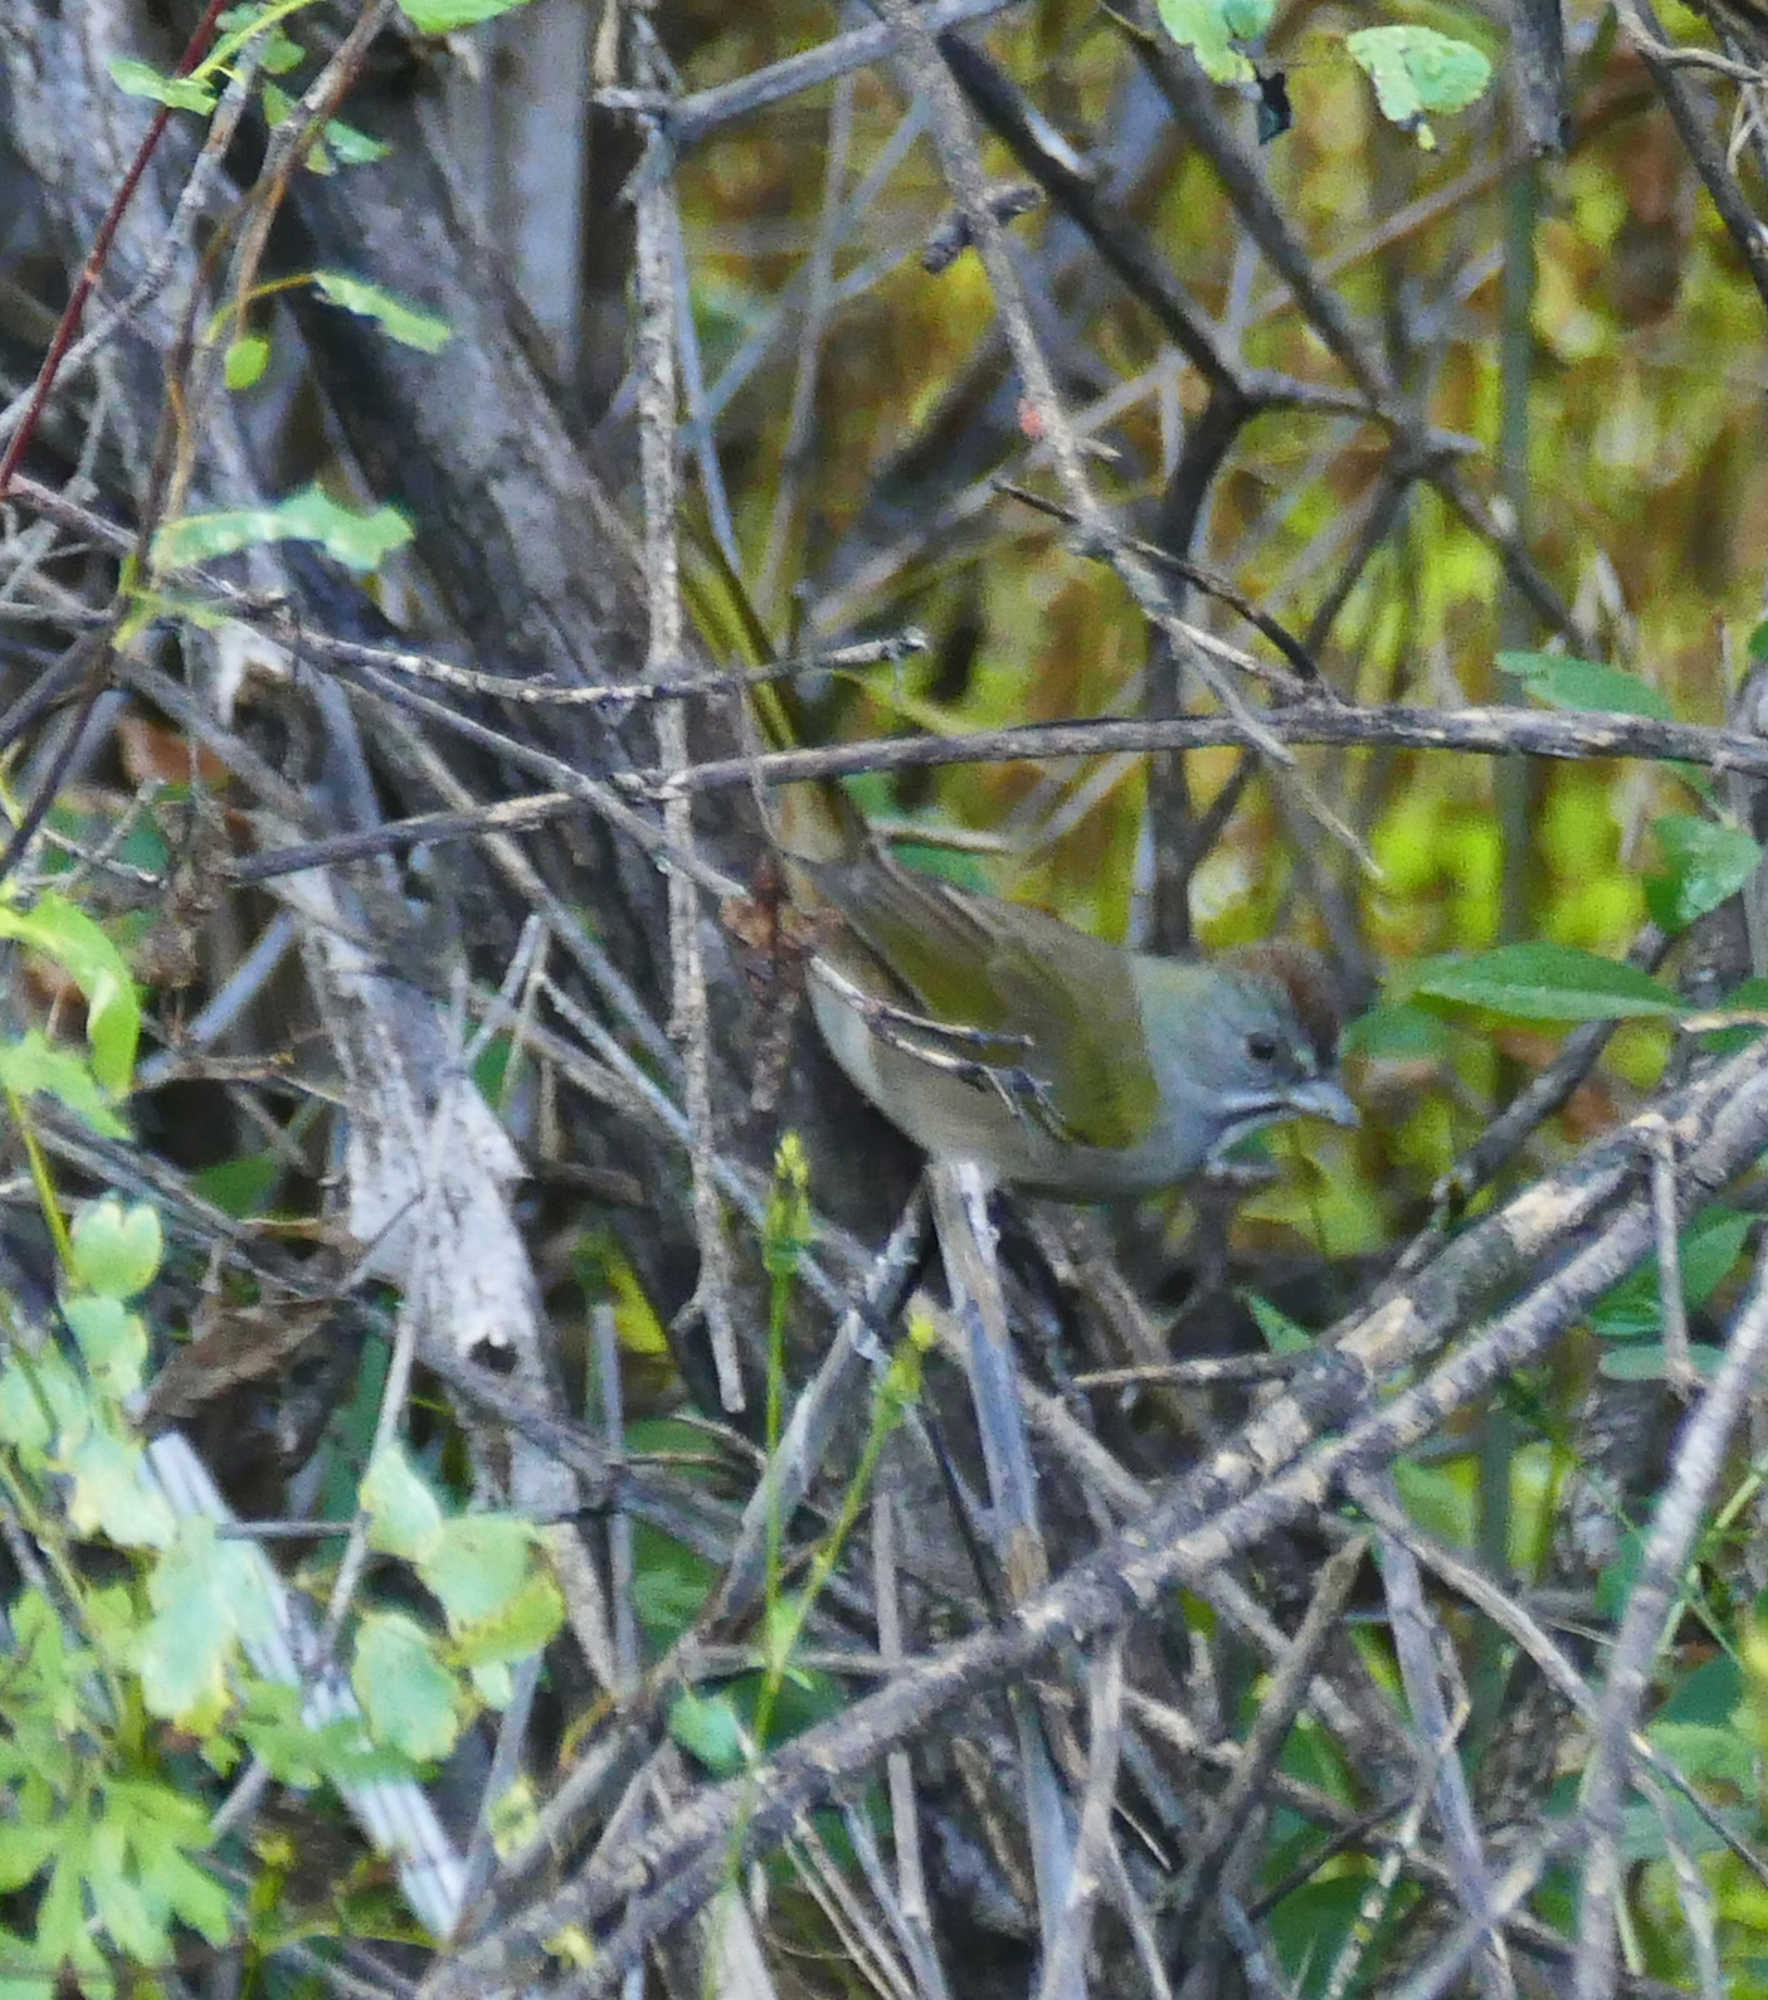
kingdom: Animalia
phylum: Chordata
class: Aves
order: Passeriformes
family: Passerellidae
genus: Pipilo
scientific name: Pipilo chlorurus
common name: Green-tailed towhee
